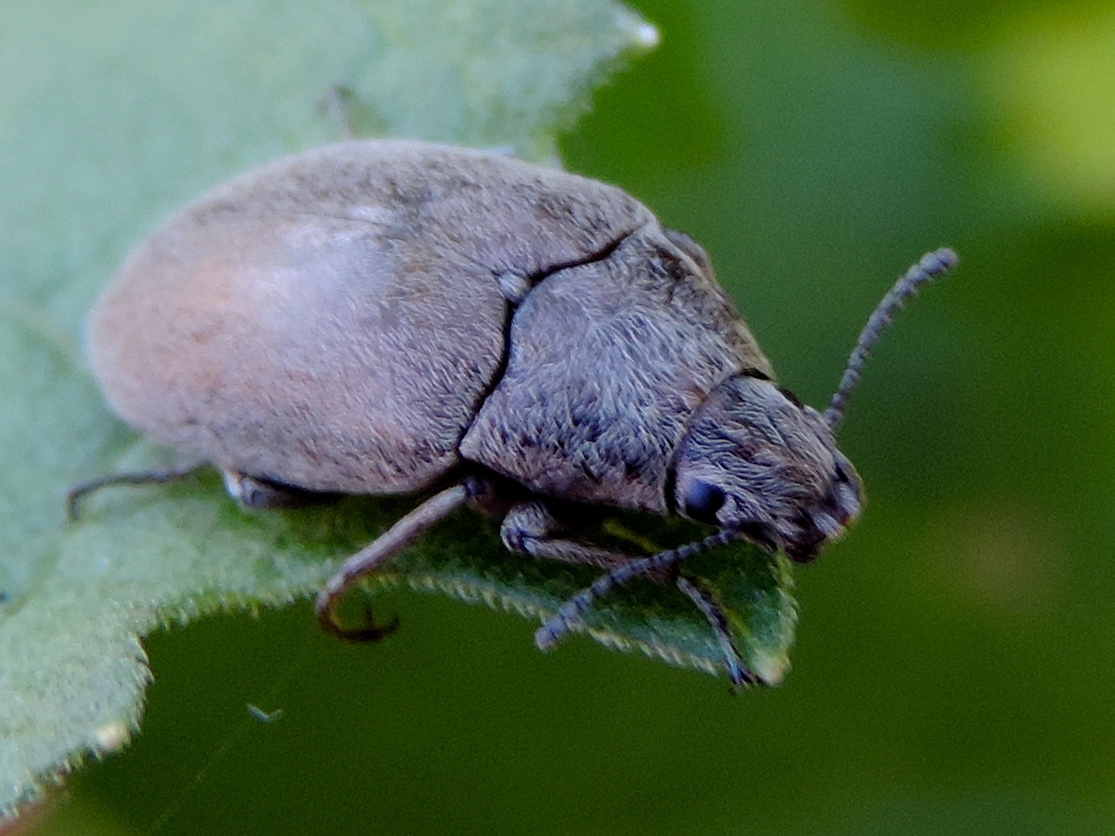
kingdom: Animalia
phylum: Arthropoda
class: Insecta
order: Coleoptera
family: Tenebrionidae
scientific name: Tenebrionidae
